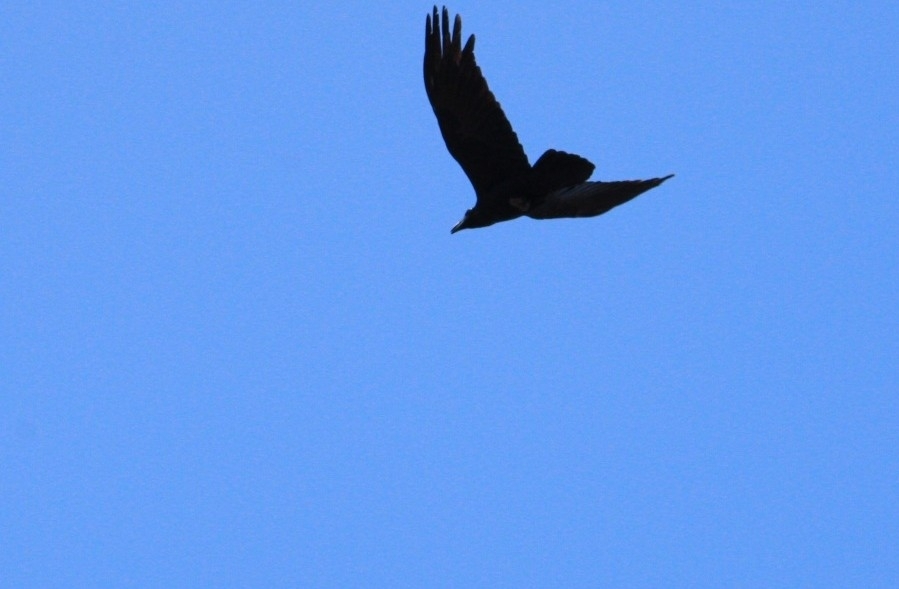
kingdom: Animalia
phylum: Chordata
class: Aves
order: Passeriformes
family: Corvidae
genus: Corvus
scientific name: Corvus corax
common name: Common raven
